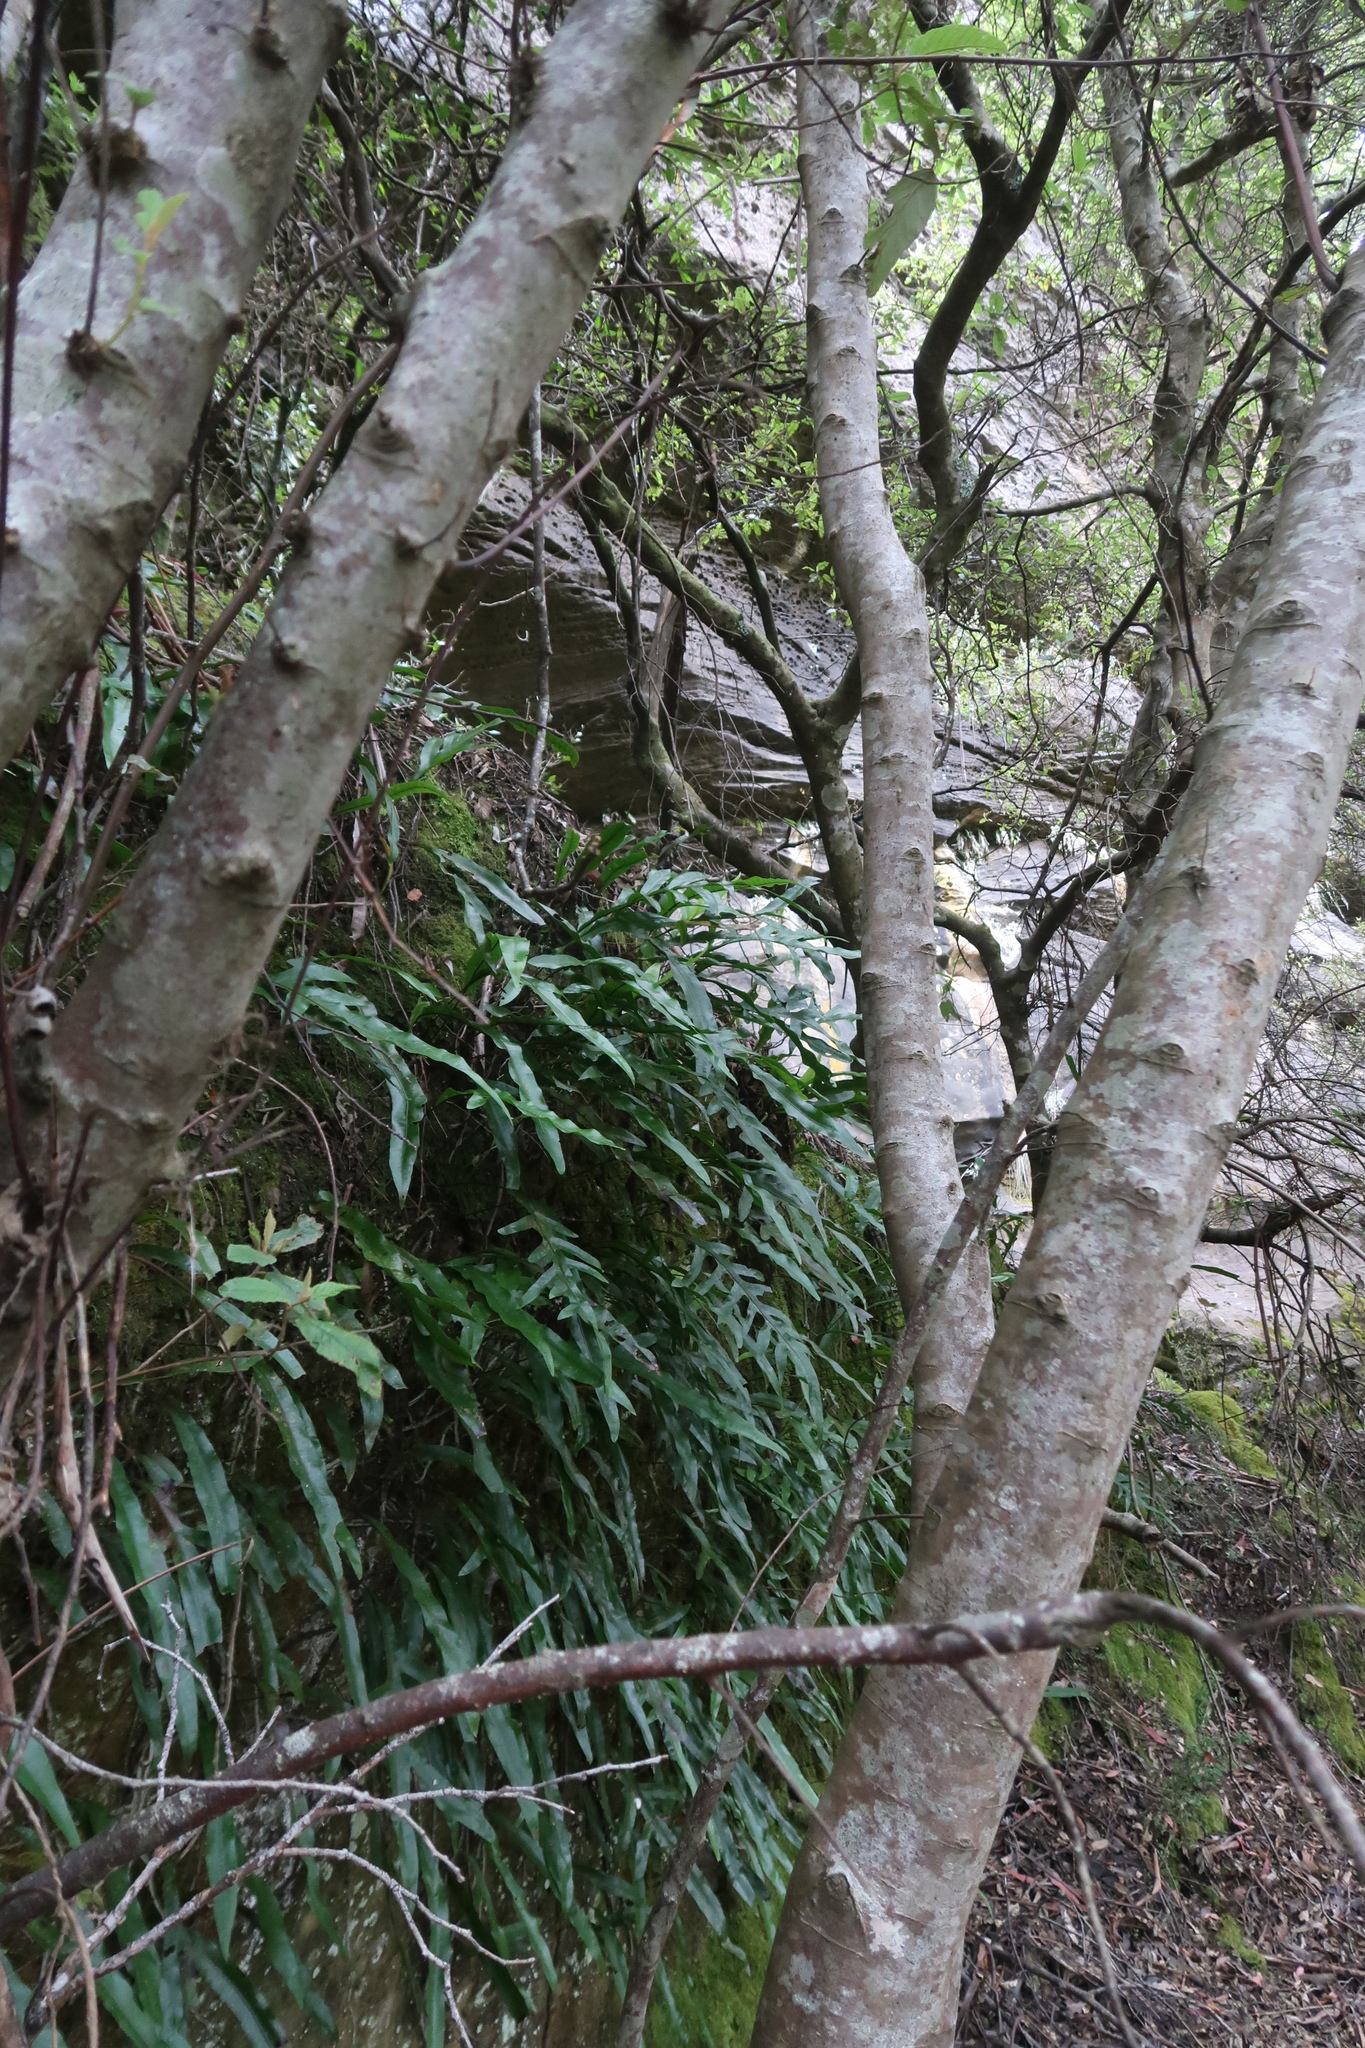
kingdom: Plantae
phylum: Tracheophyta
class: Polypodiopsida
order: Polypodiales
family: Polypodiaceae
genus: Lecanopteris
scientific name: Lecanopteris pustulata
